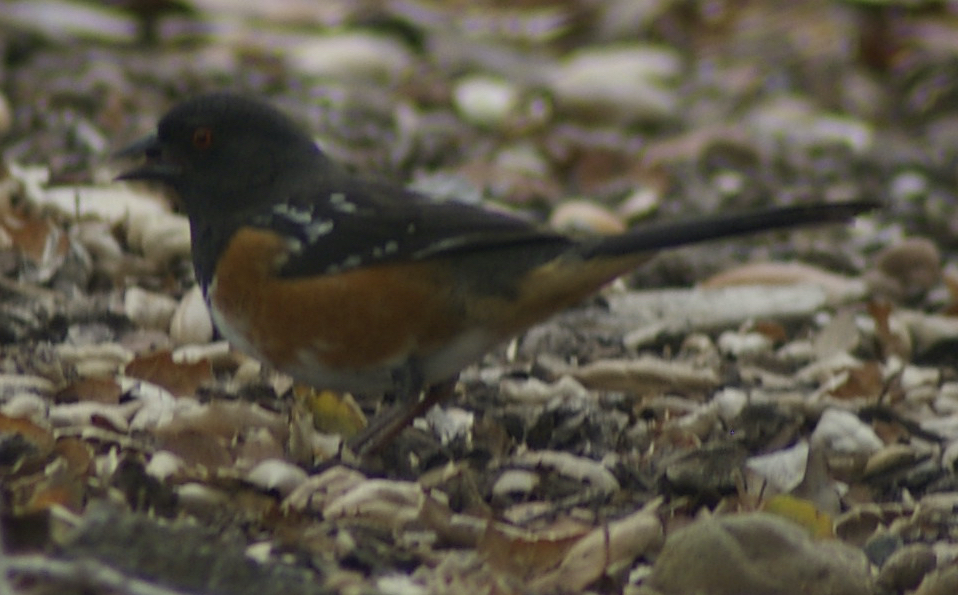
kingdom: Animalia
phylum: Chordata
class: Aves
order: Passeriformes
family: Passerellidae
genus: Pipilo
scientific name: Pipilo maculatus
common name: Spotted towhee
